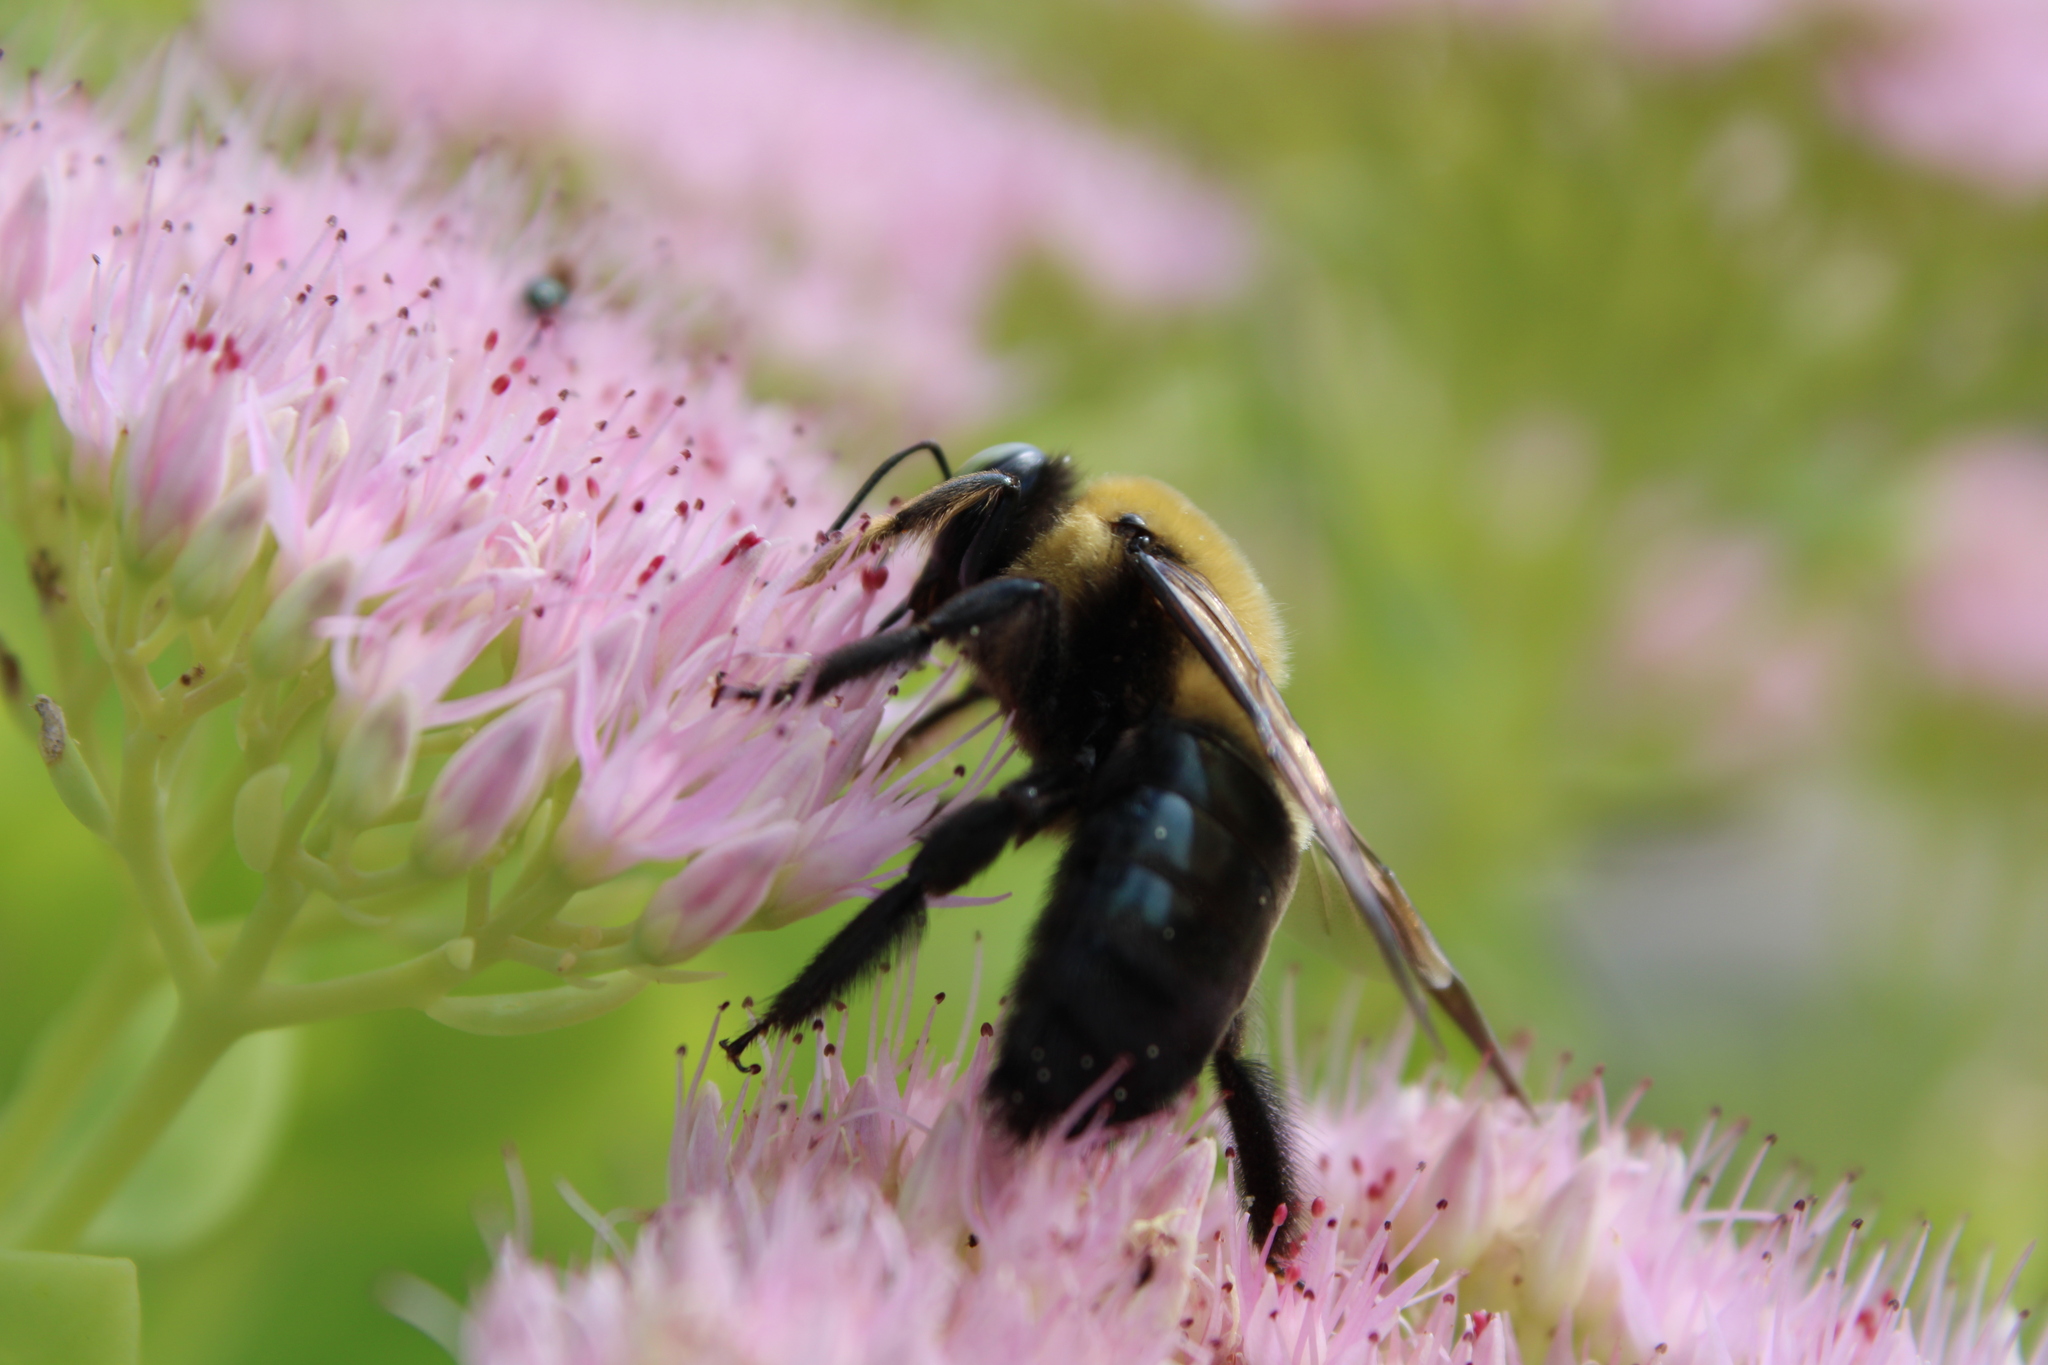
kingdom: Animalia
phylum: Arthropoda
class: Insecta
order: Hymenoptera
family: Apidae
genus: Xylocopa
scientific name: Xylocopa virginica
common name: Carpenter bee
